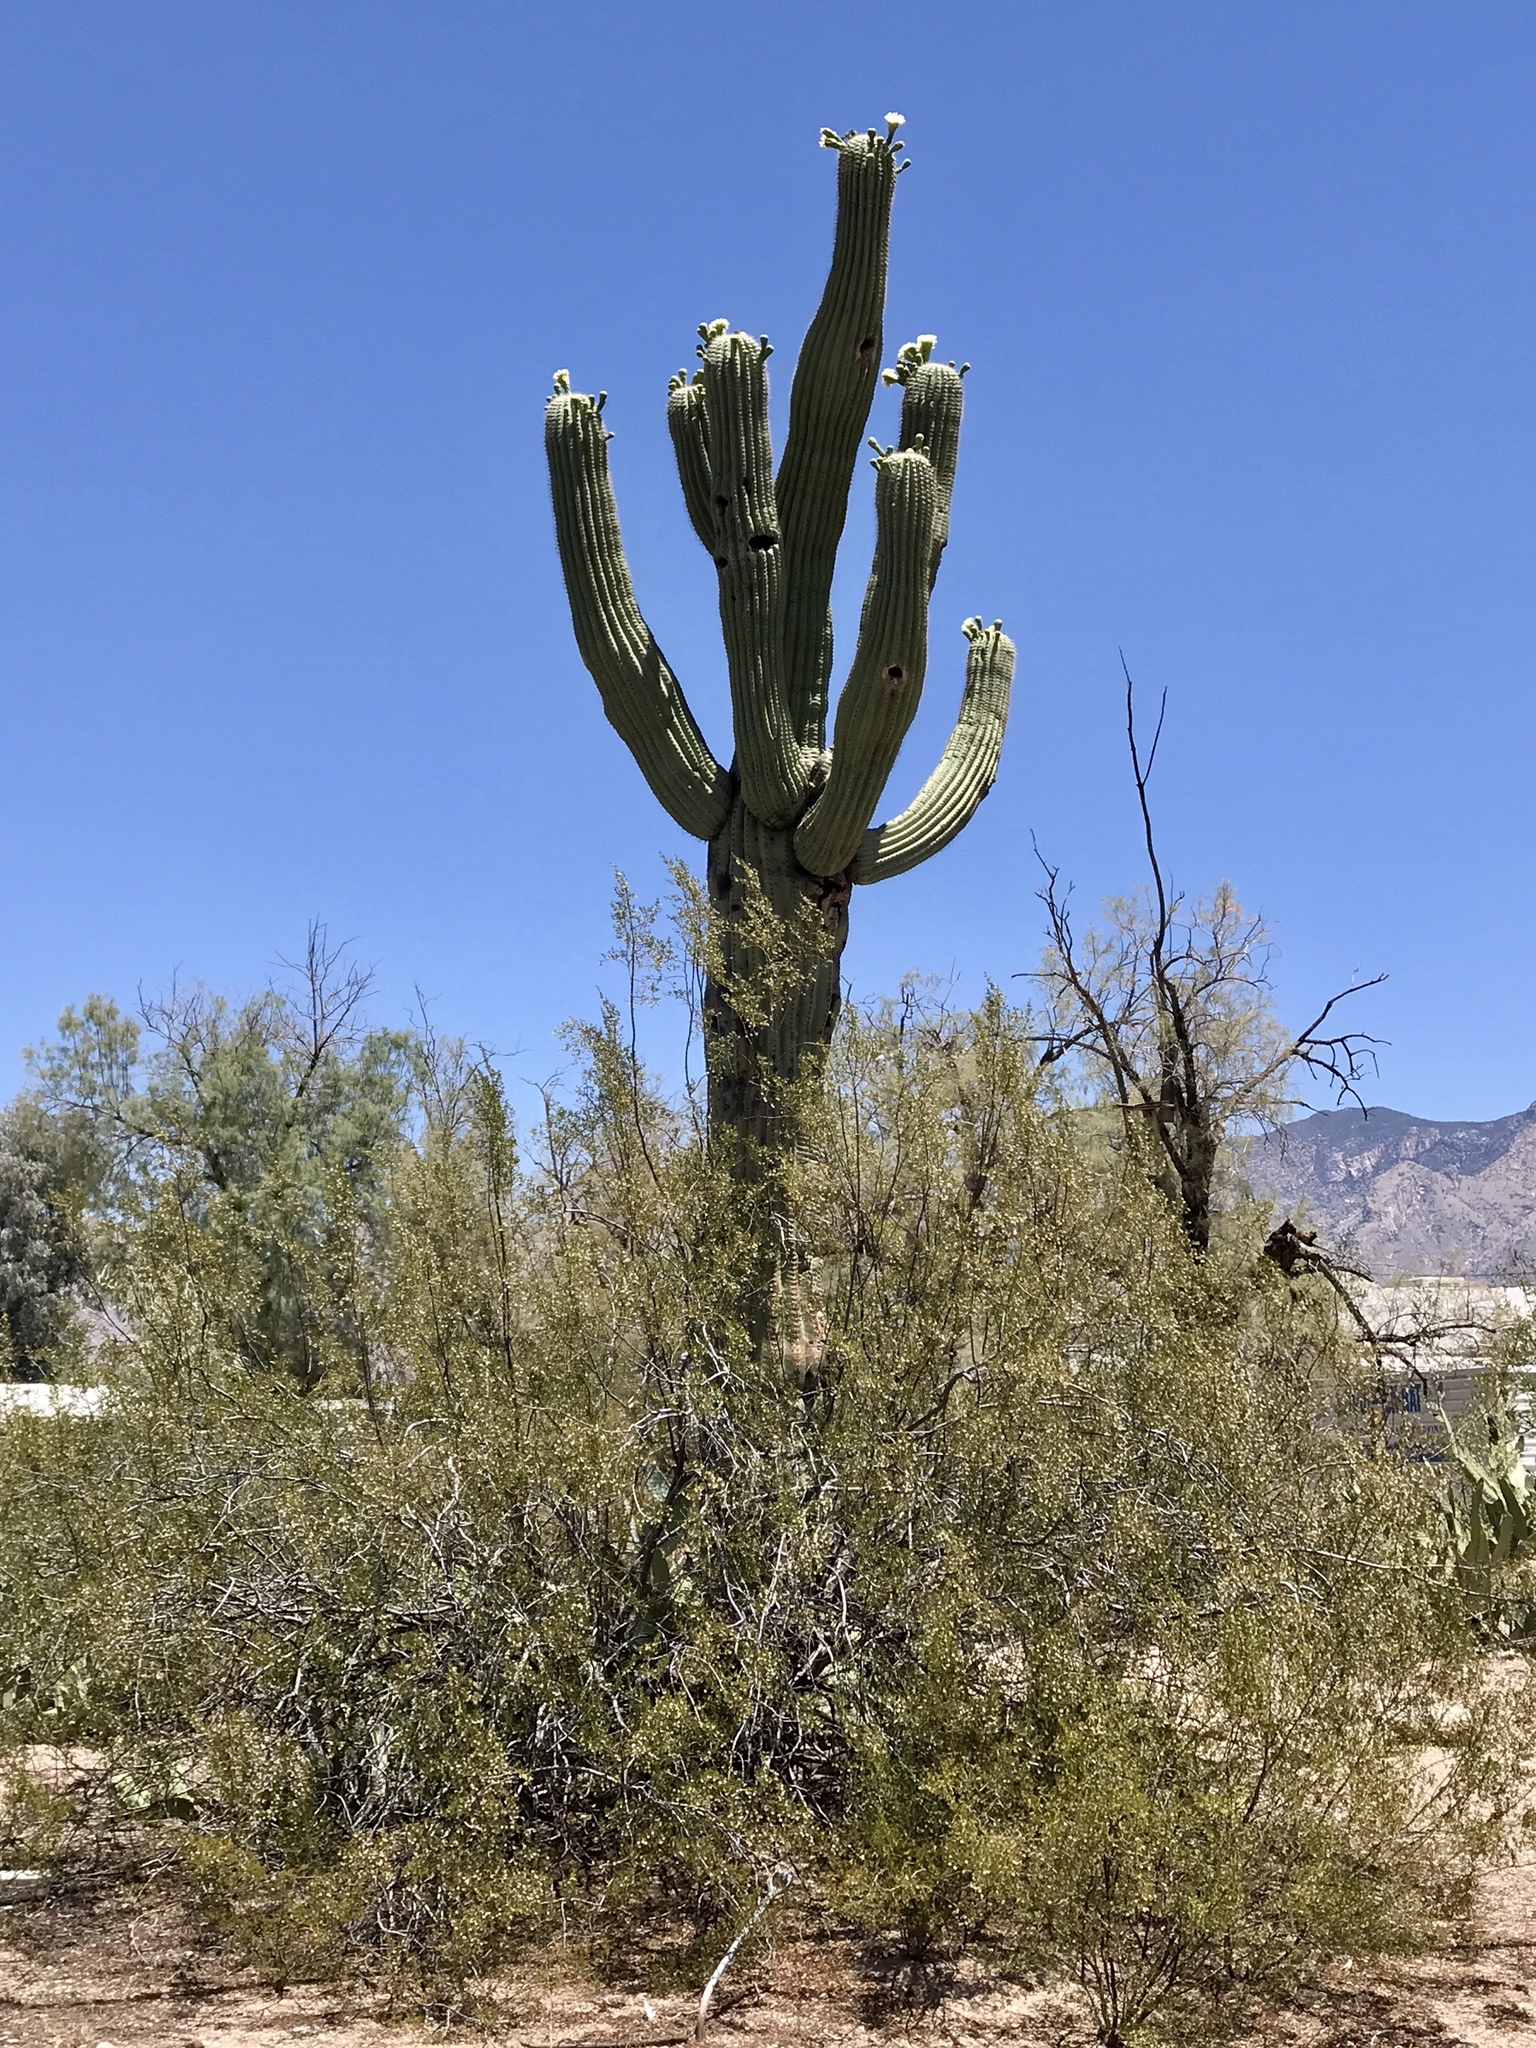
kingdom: Plantae
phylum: Tracheophyta
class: Magnoliopsida
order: Caryophyllales
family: Cactaceae
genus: Carnegiea
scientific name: Carnegiea gigantea
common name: Saguaro
